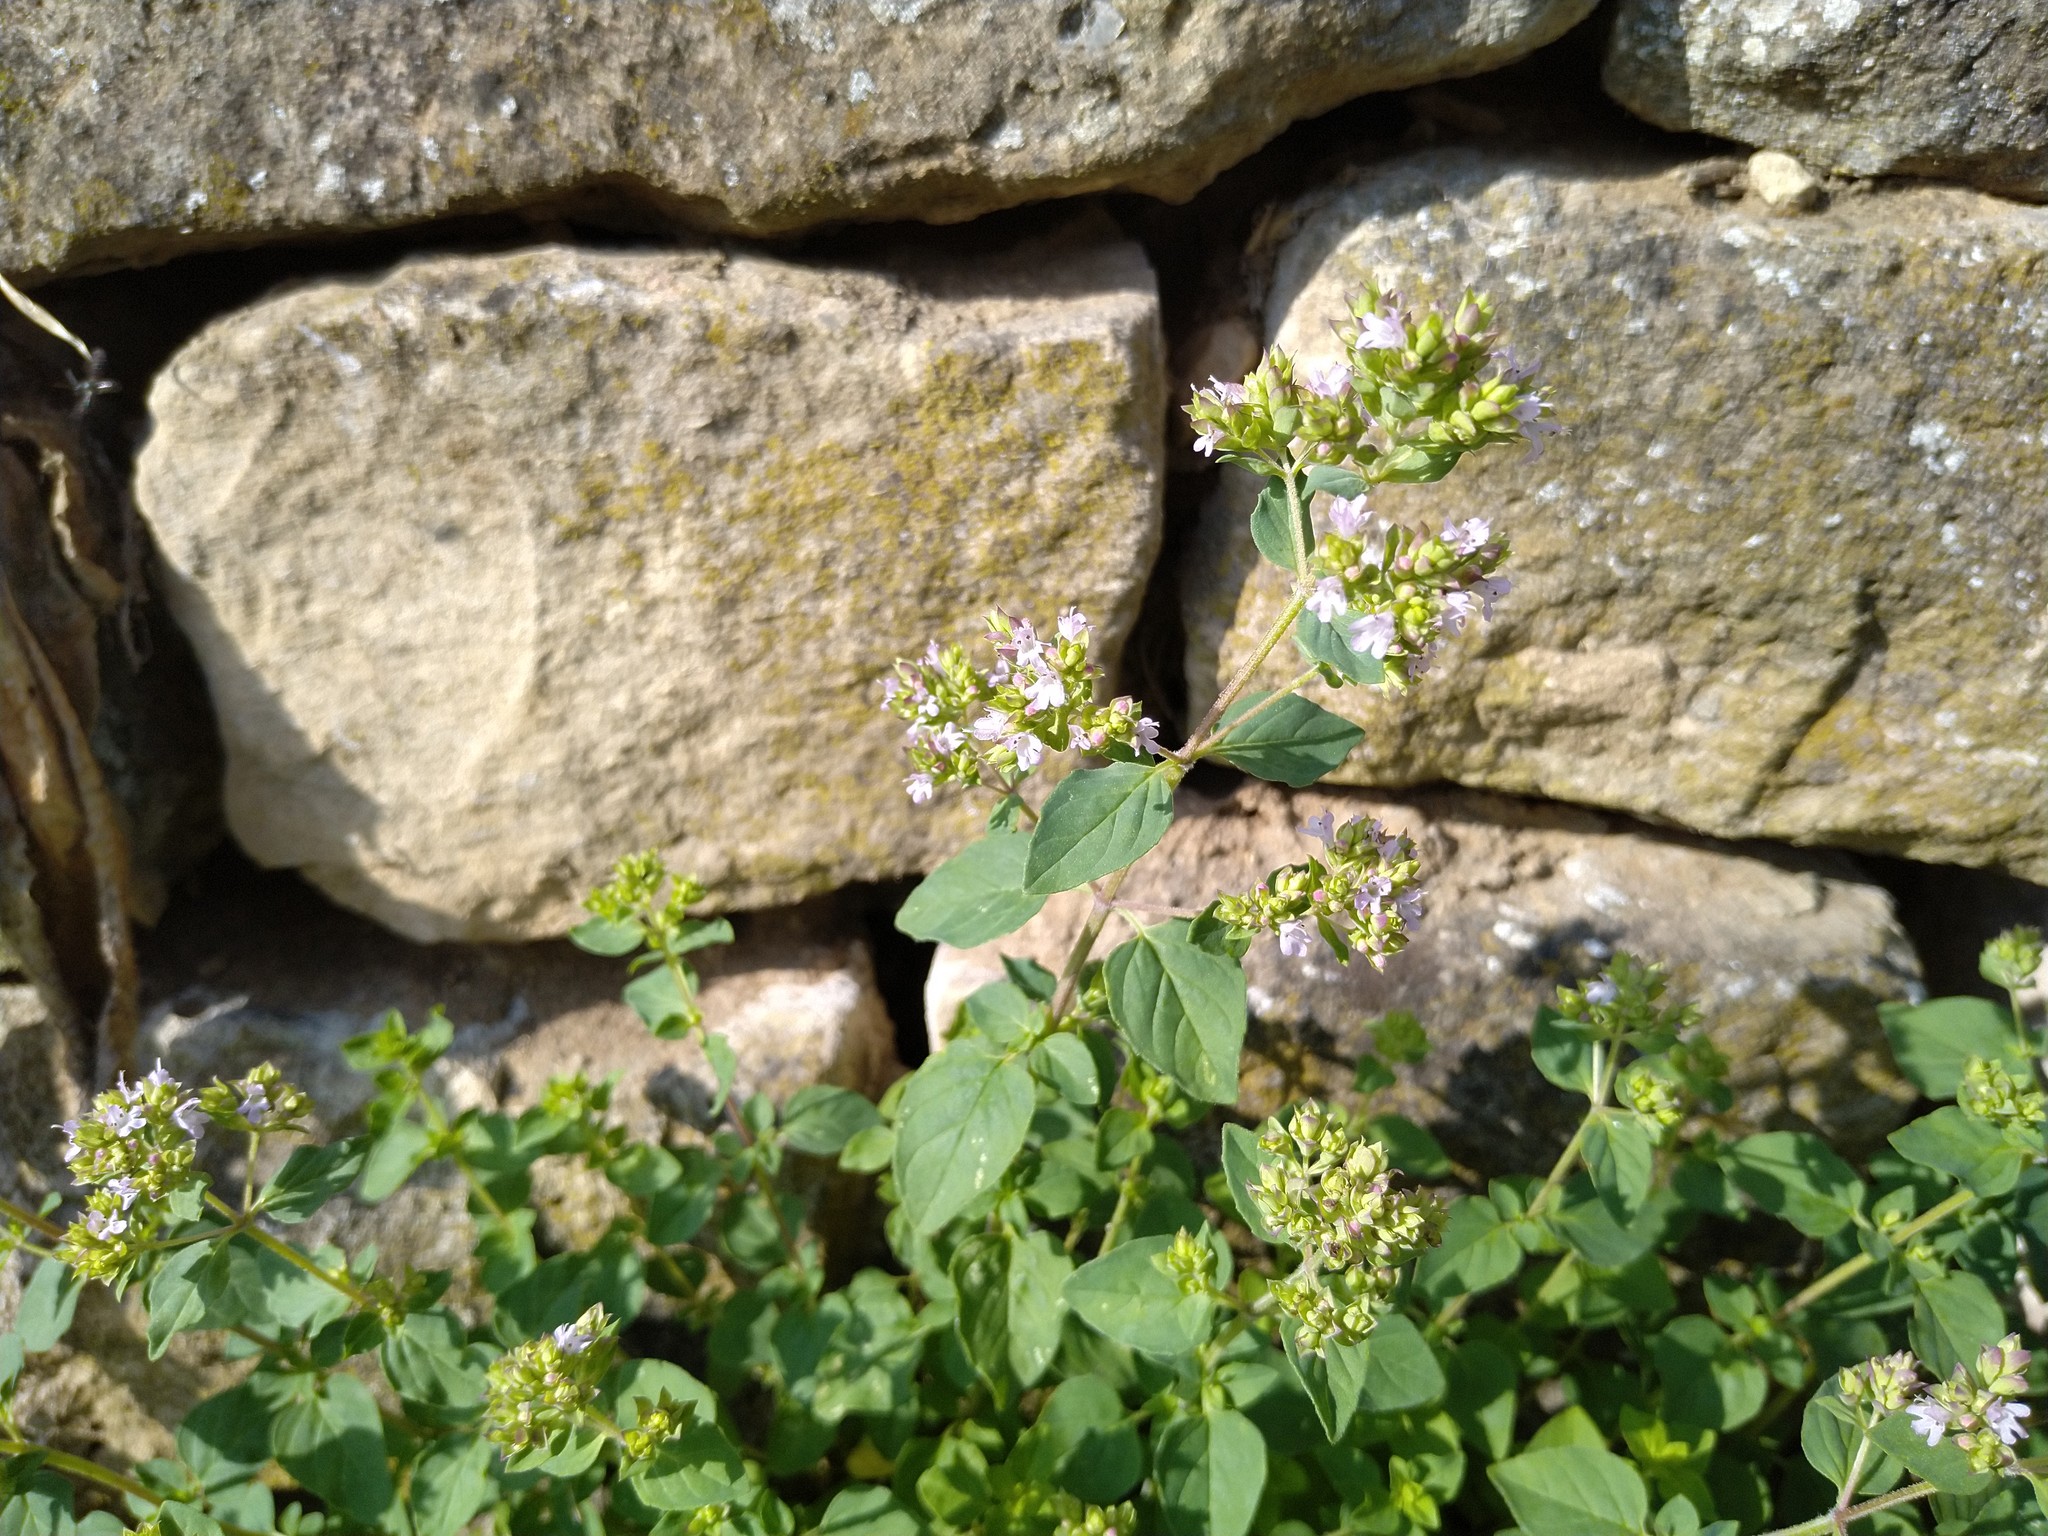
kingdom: Plantae
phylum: Tracheophyta
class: Magnoliopsida
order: Lamiales
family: Lamiaceae
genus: Origanum
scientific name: Origanum vulgare
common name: Wild marjoram
